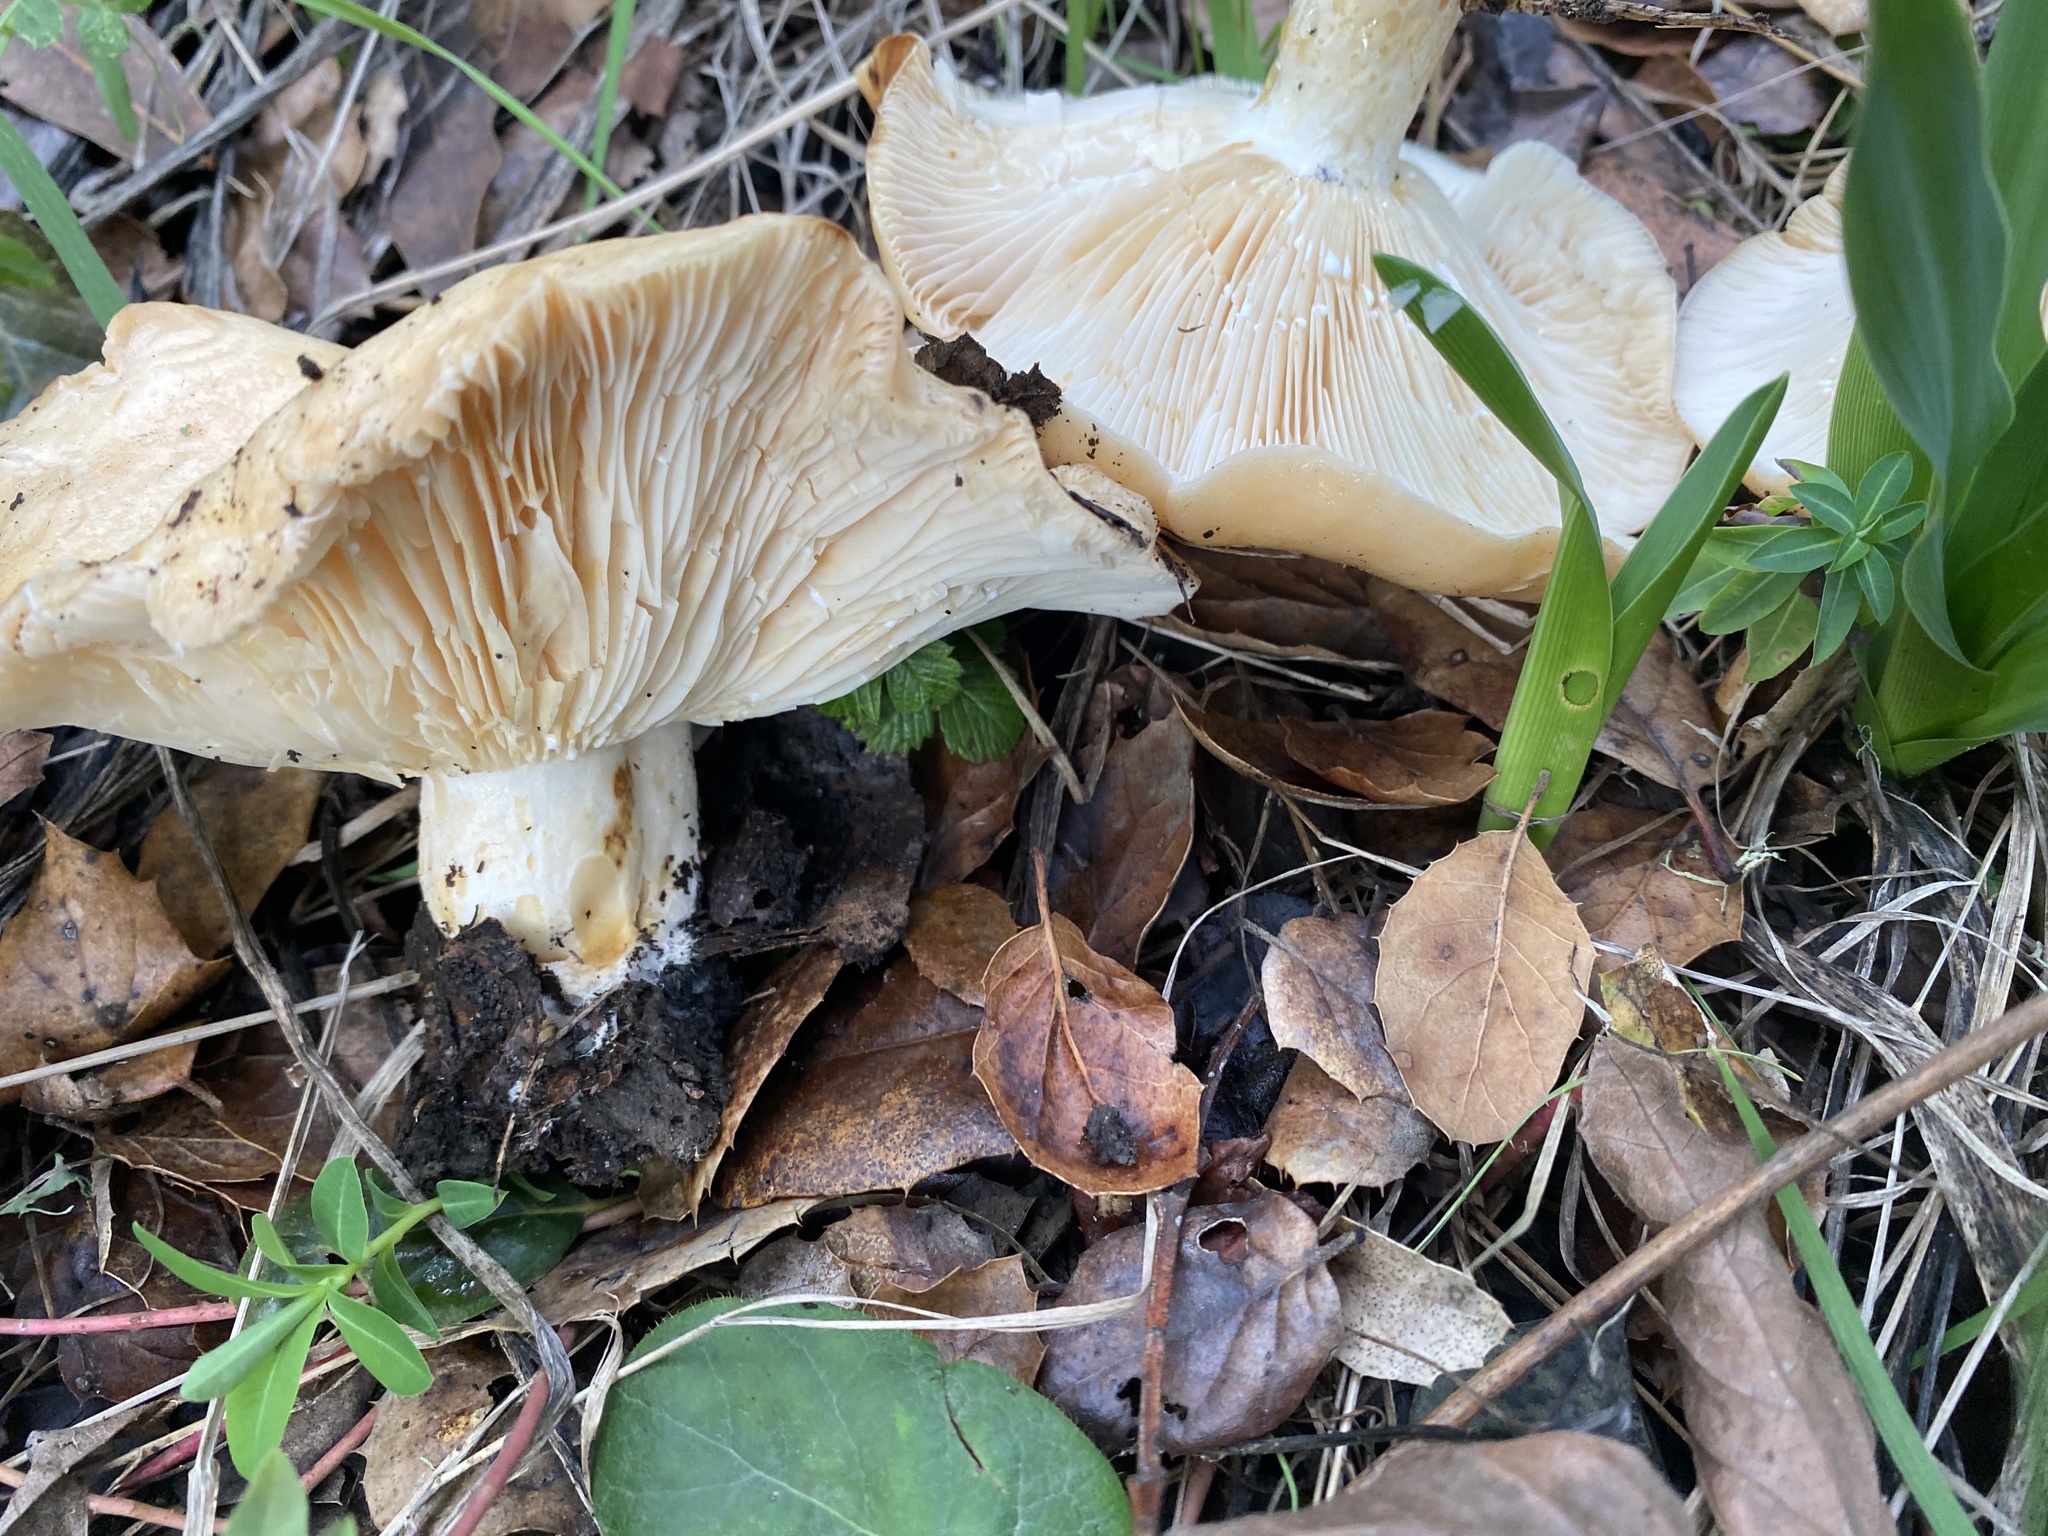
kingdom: Fungi
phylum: Basidiomycota
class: Agaricomycetes
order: Russulales
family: Russulaceae
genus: Lactarius
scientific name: Lactarius alnicola
